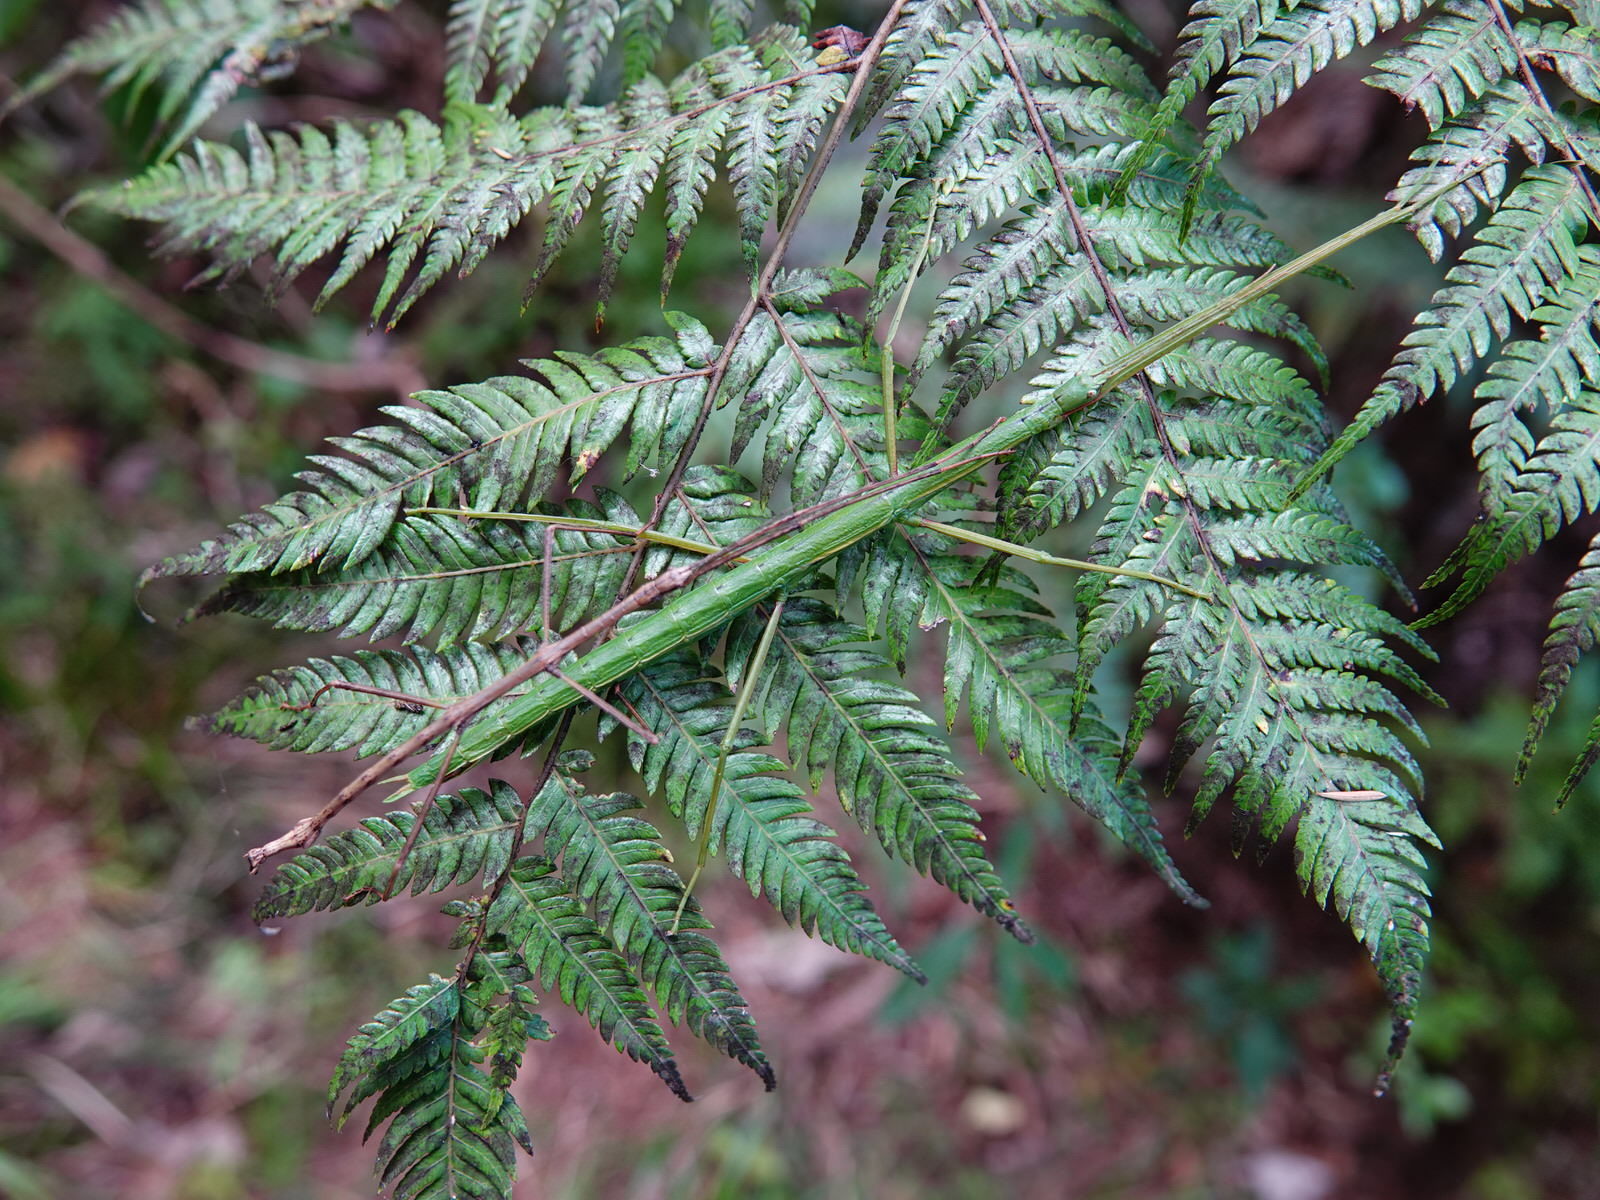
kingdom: Animalia
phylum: Arthropoda
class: Insecta
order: Phasmida
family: Phasmatidae
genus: Clitarchus
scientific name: Clitarchus hookeri
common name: Smooth stick insect
